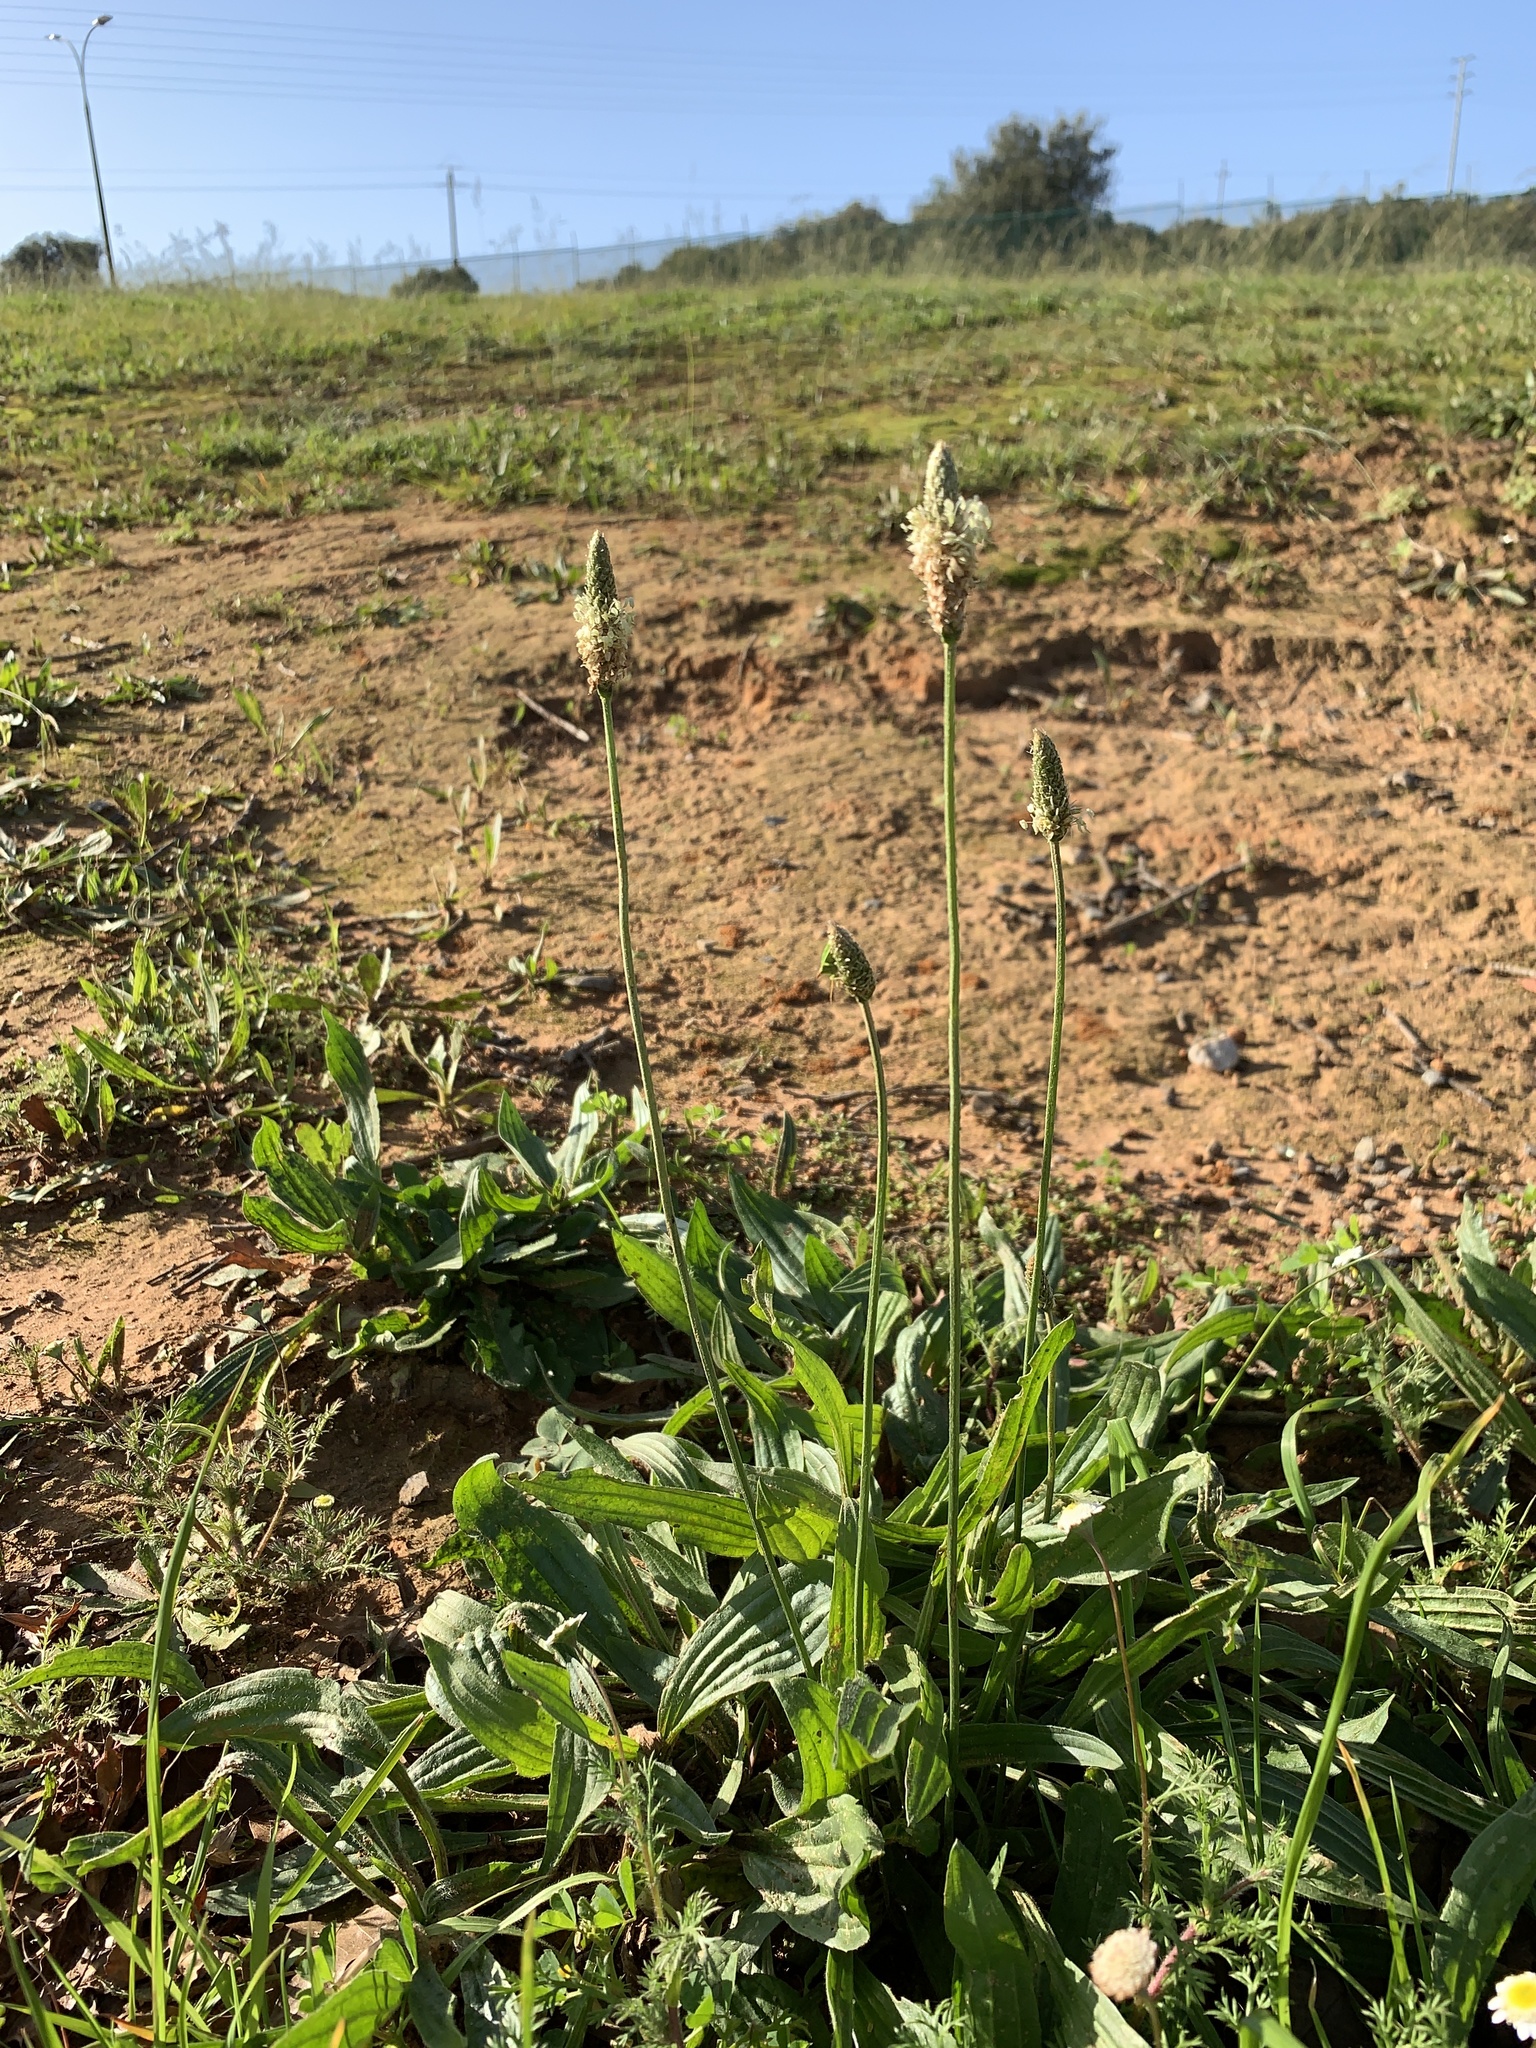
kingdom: Plantae
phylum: Tracheophyta
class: Magnoliopsida
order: Lamiales
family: Plantaginaceae
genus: Plantago
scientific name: Plantago lanceolata
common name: Ribwort plantain
